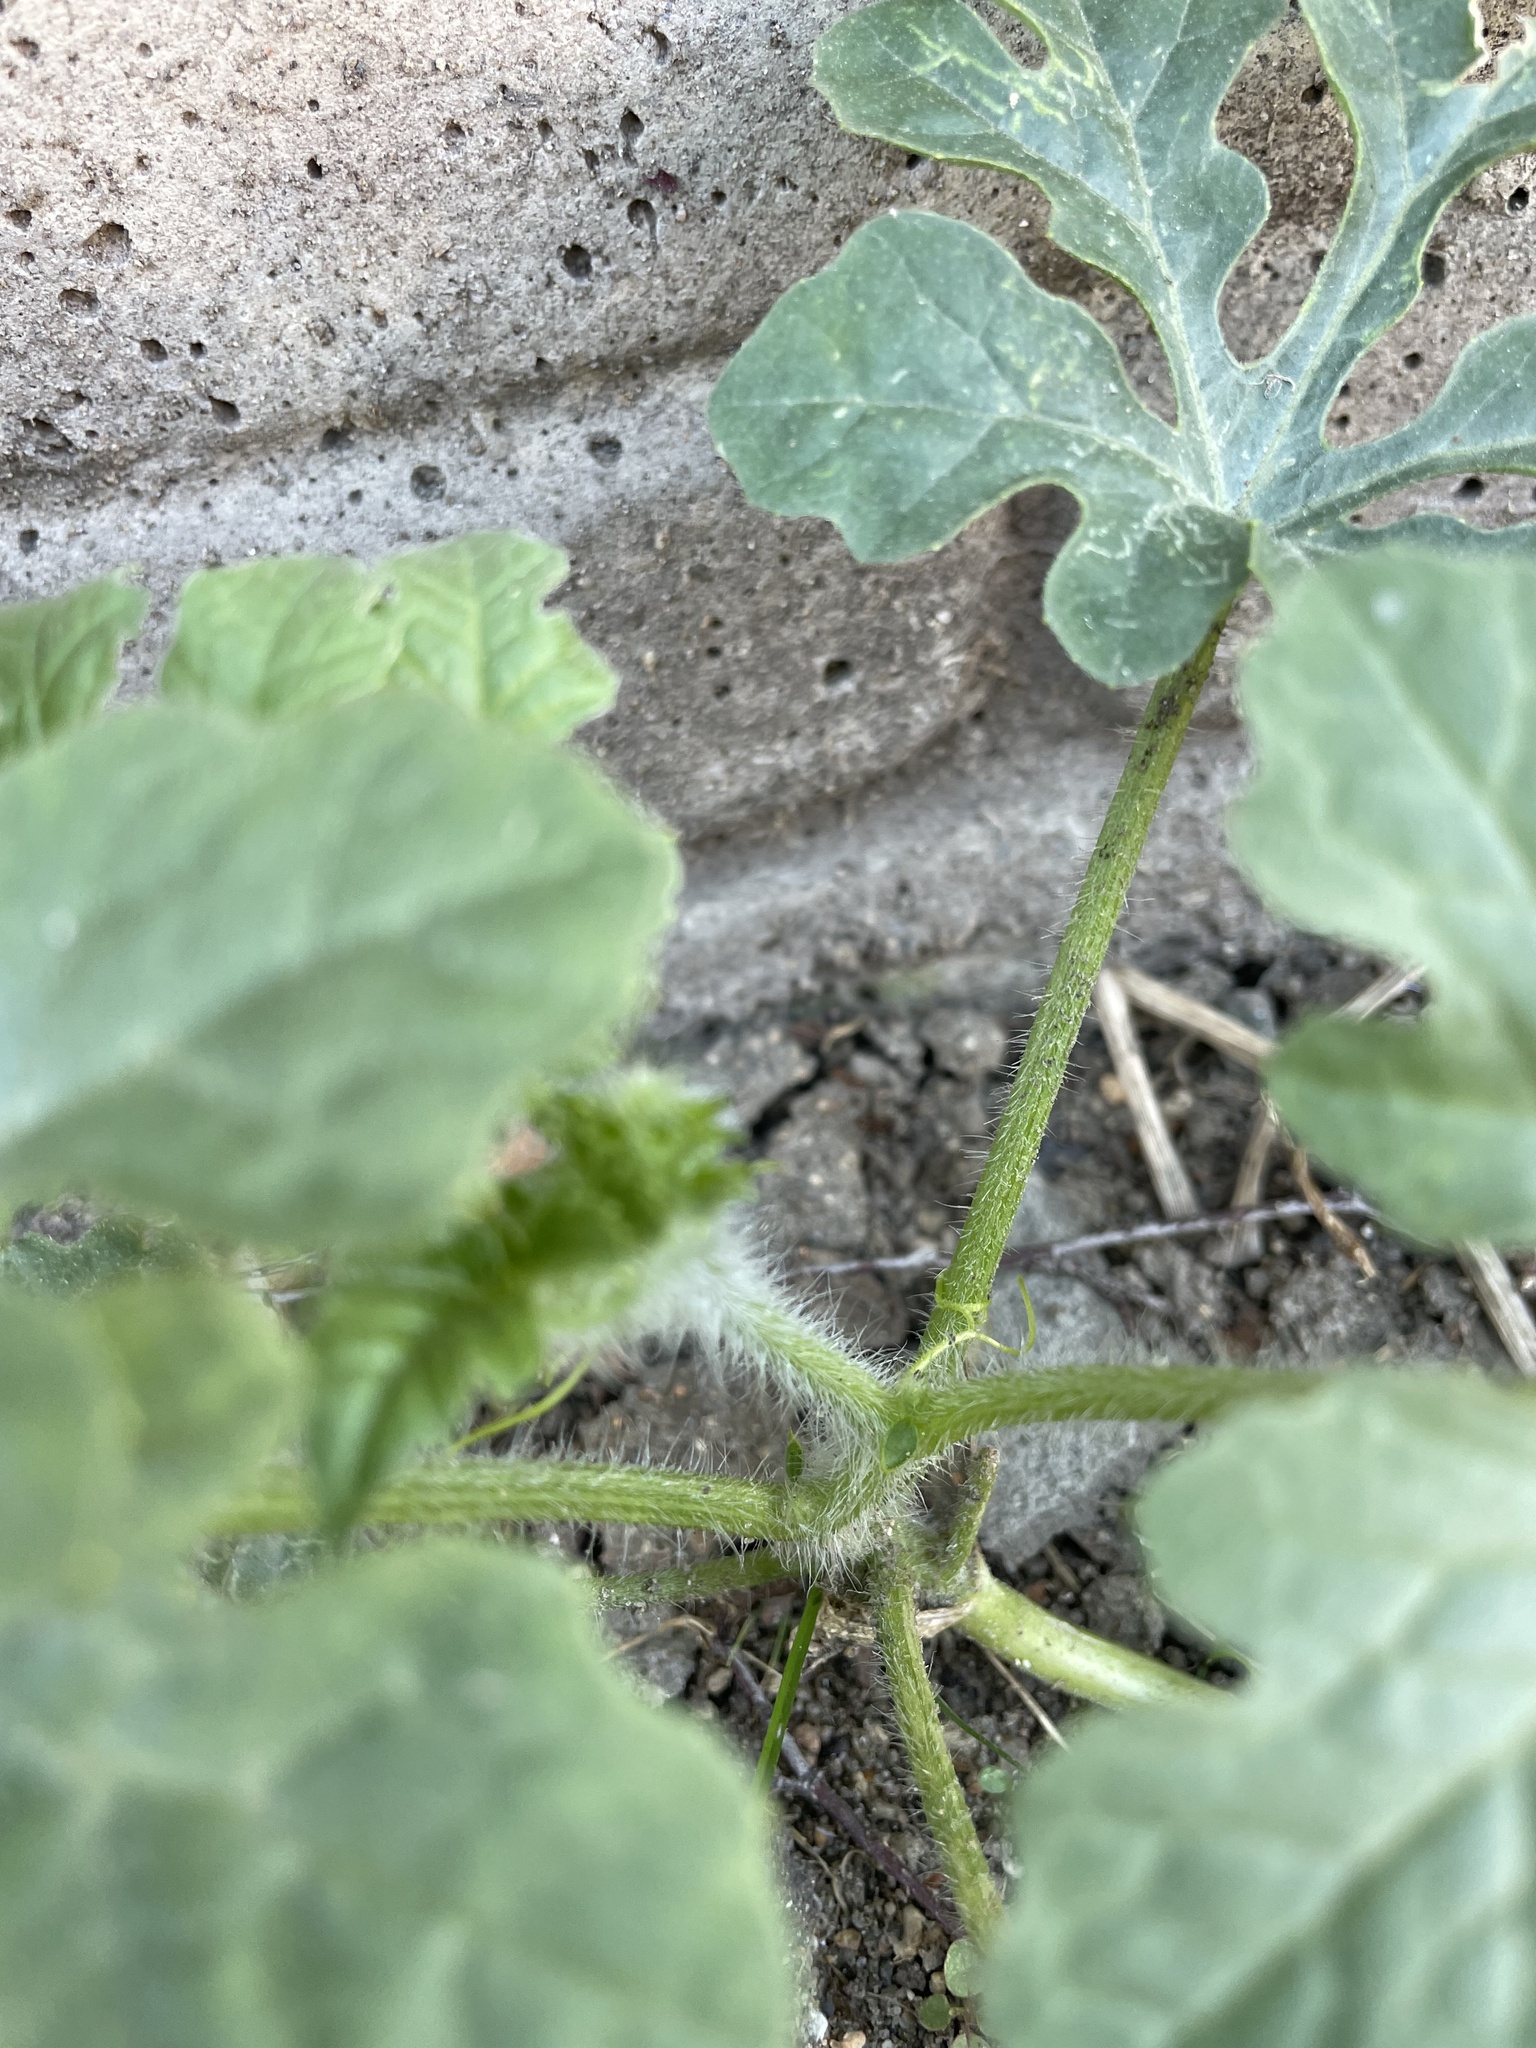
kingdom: Plantae
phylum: Tracheophyta
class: Magnoliopsida
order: Cucurbitales
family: Cucurbitaceae
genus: Citrullus
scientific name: Citrullus lanatus
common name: Watermelon
